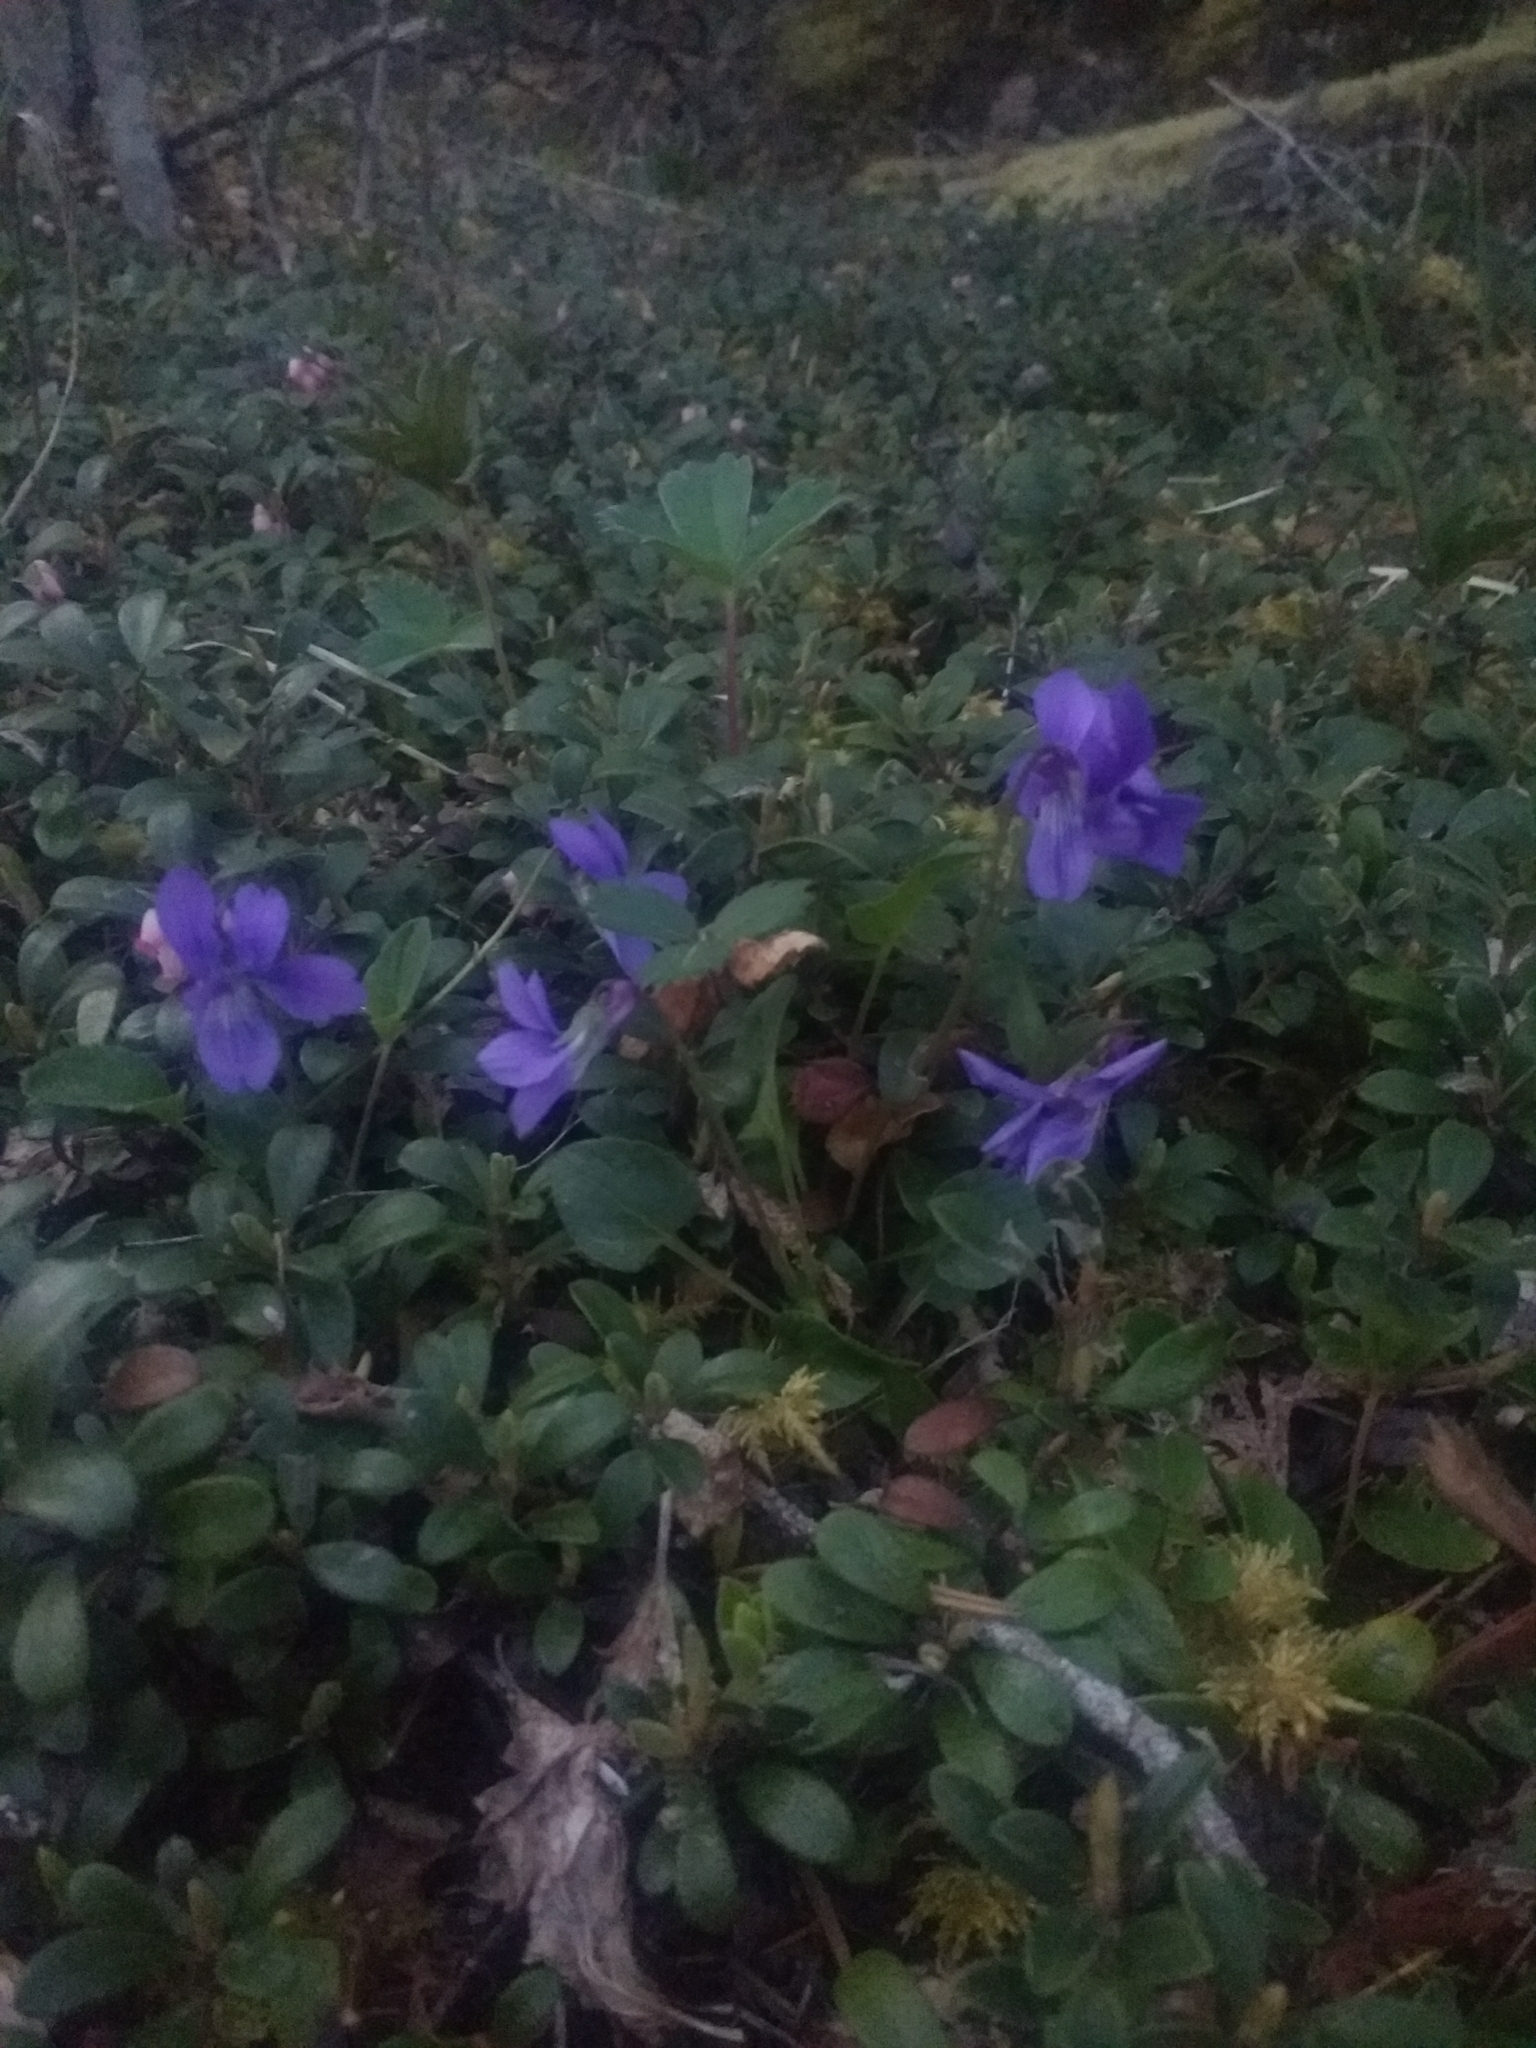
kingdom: Plantae
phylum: Tracheophyta
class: Magnoliopsida
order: Malpighiales
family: Violaceae
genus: Viola
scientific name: Viola adunca
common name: Sand violet
